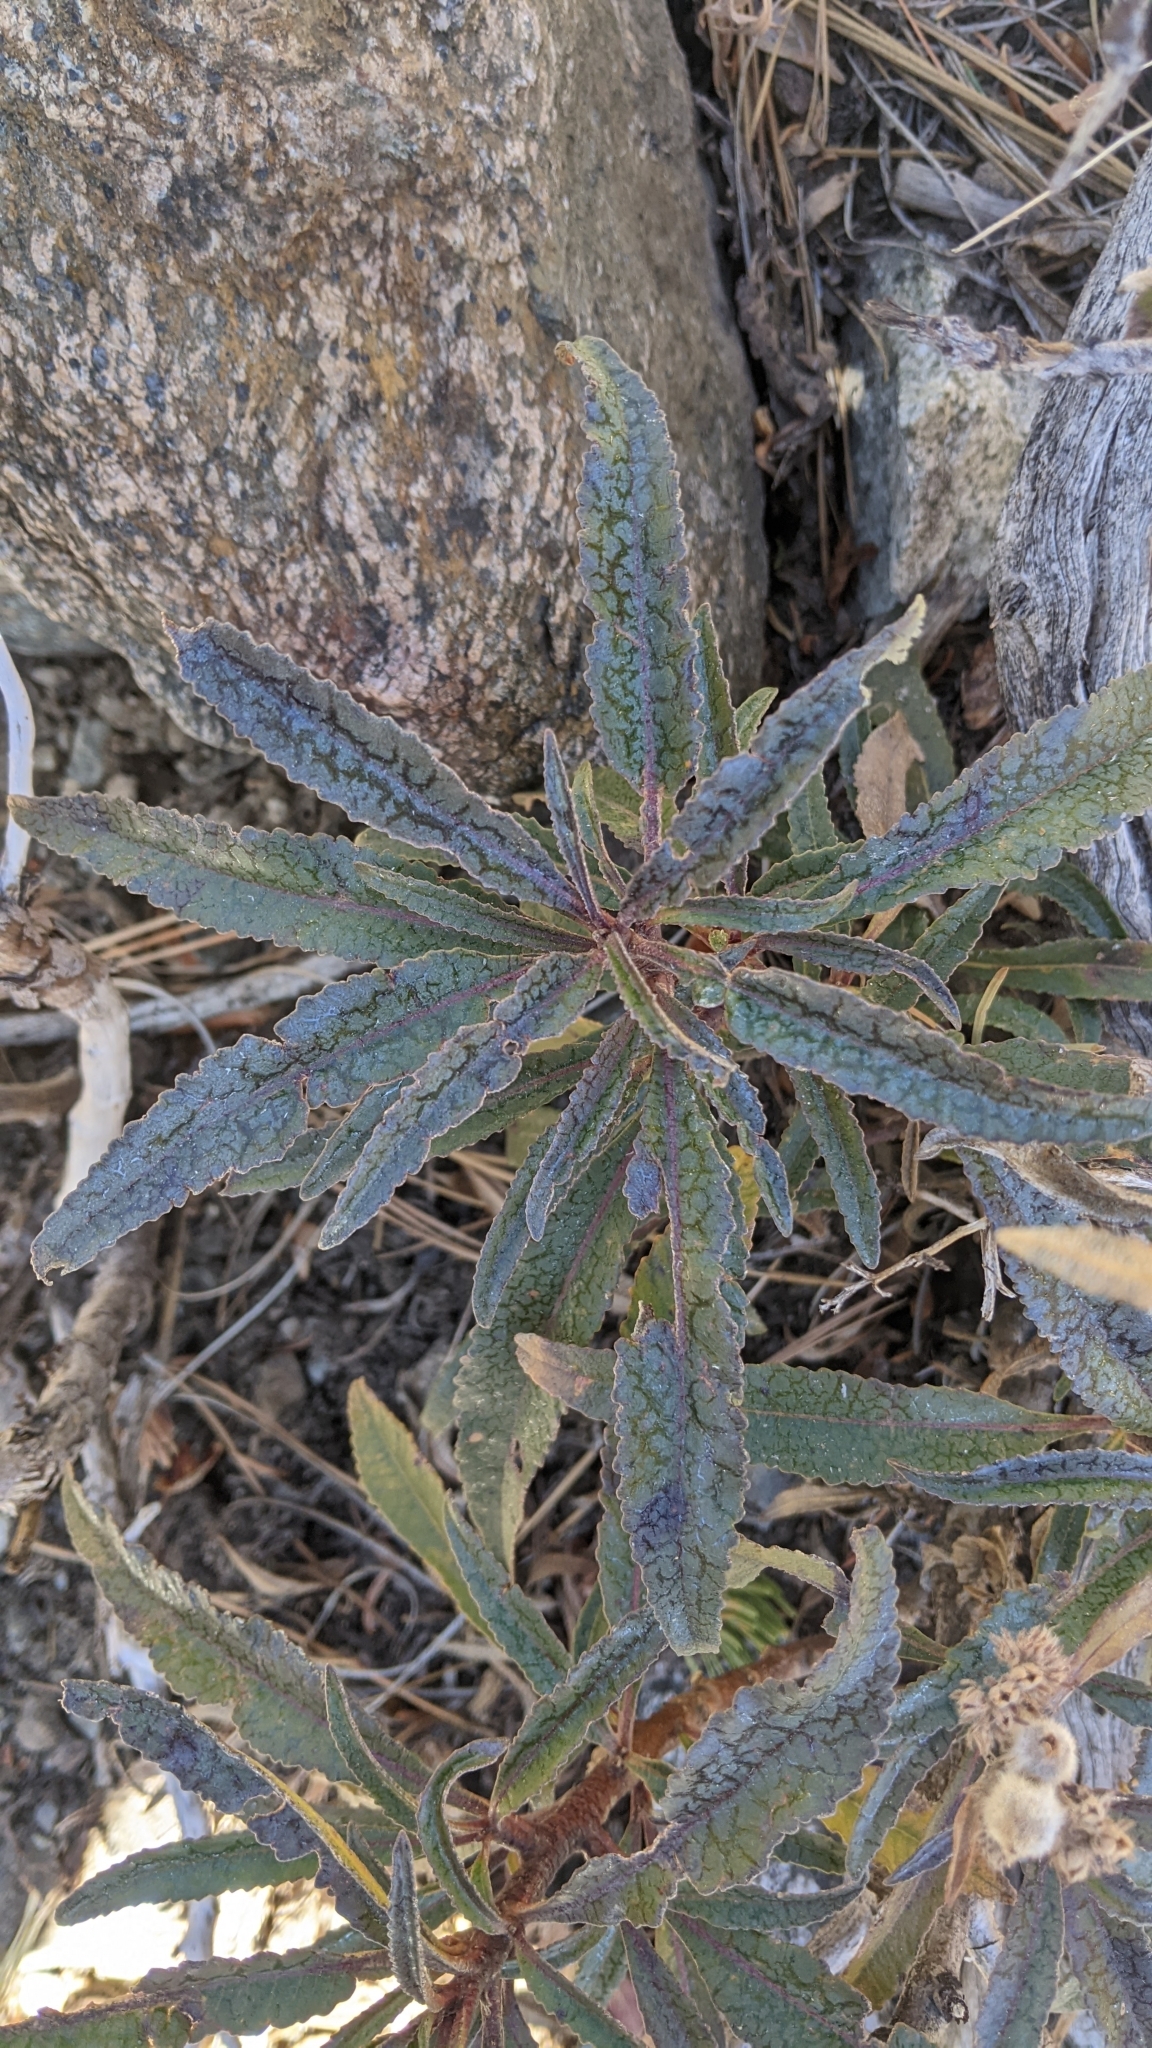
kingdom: Plantae
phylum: Tracheophyta
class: Magnoliopsida
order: Boraginales
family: Namaceae
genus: Eriodictyon
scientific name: Eriodictyon trichocalyx
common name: Hairy yerba-santa
